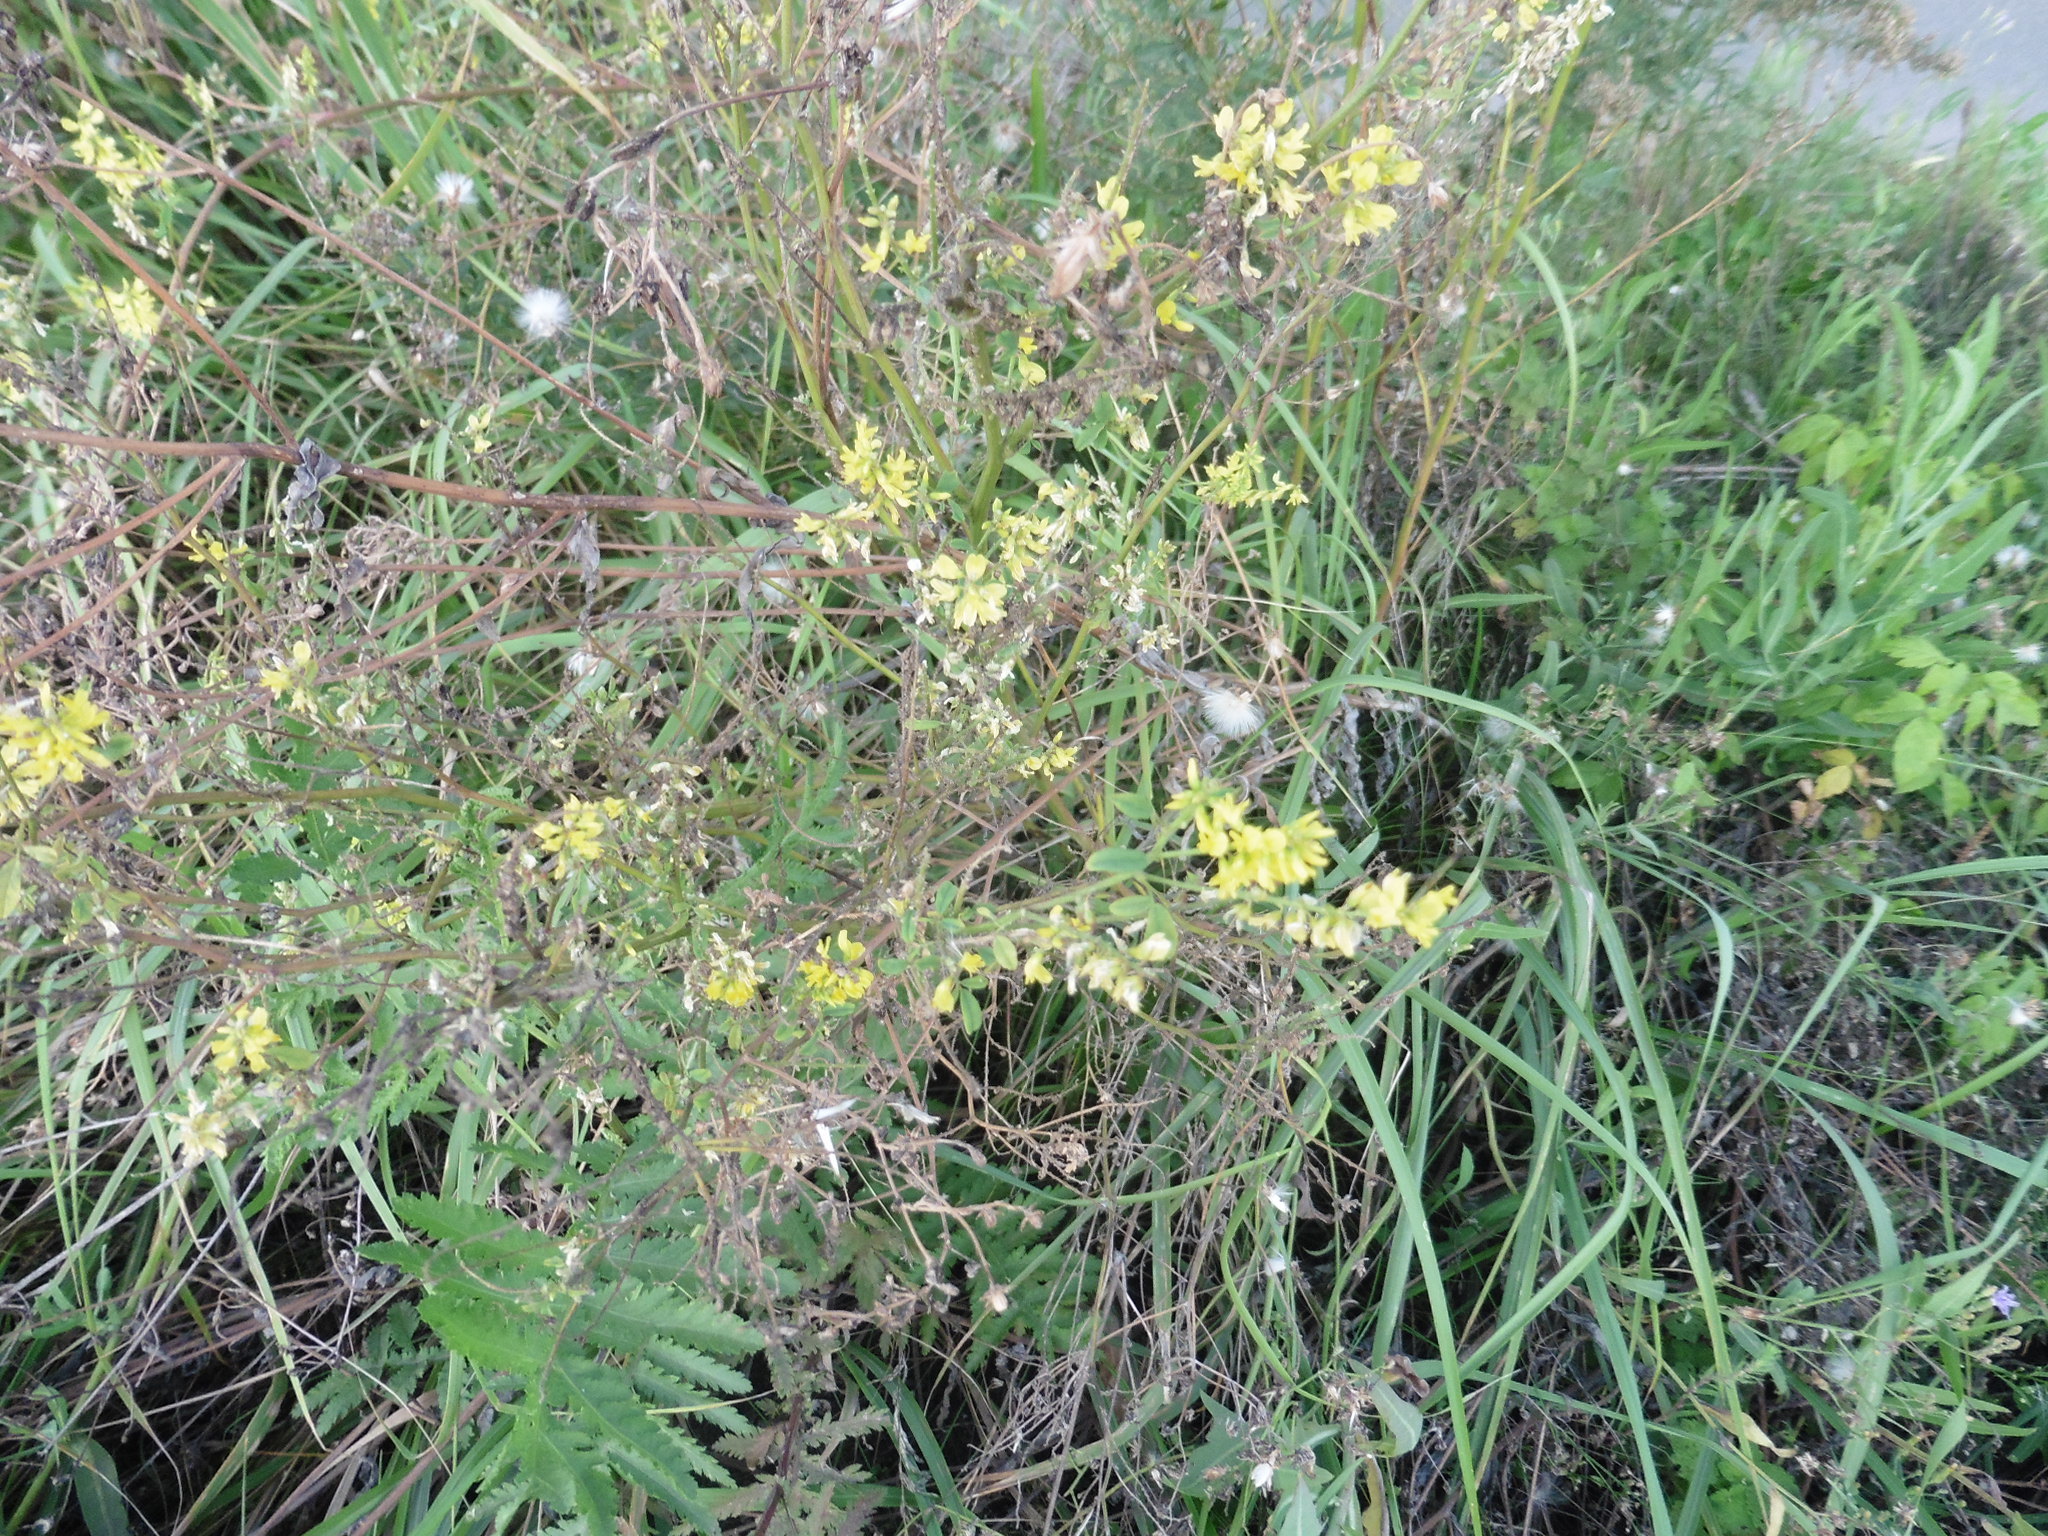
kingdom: Plantae
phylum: Tracheophyta
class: Magnoliopsida
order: Fabales
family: Fabaceae
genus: Melilotus
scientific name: Melilotus officinalis
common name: Sweetclover
